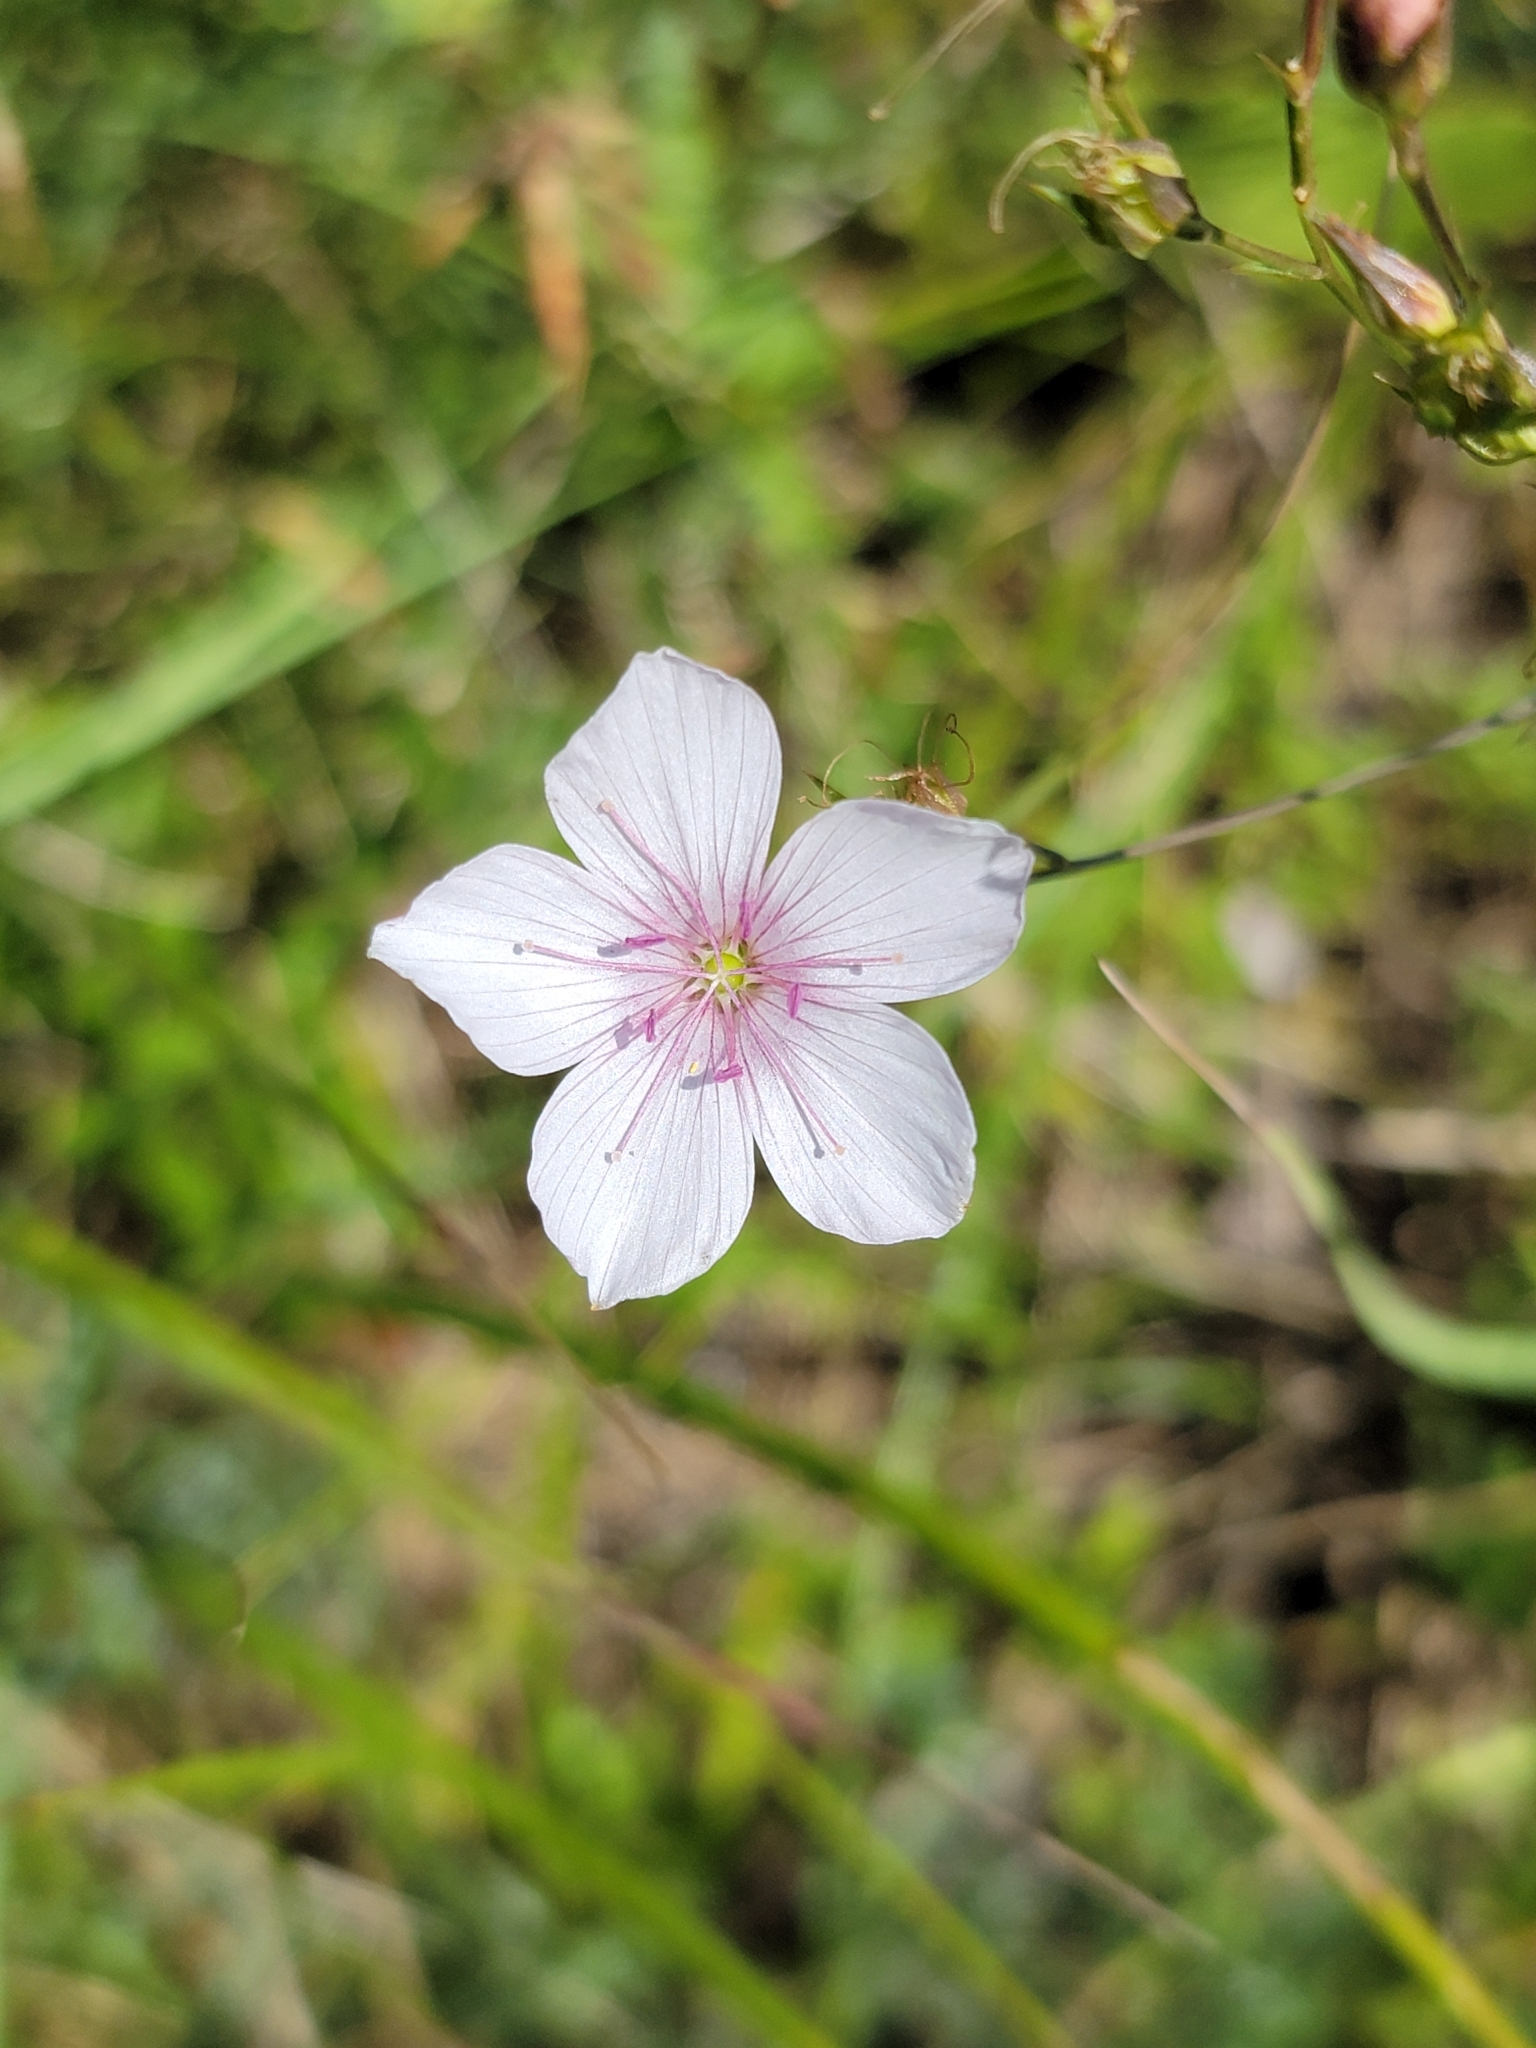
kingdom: Plantae
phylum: Tracheophyta
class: Magnoliopsida
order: Malpighiales
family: Linaceae
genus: Linum
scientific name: Linum tenuifolium
